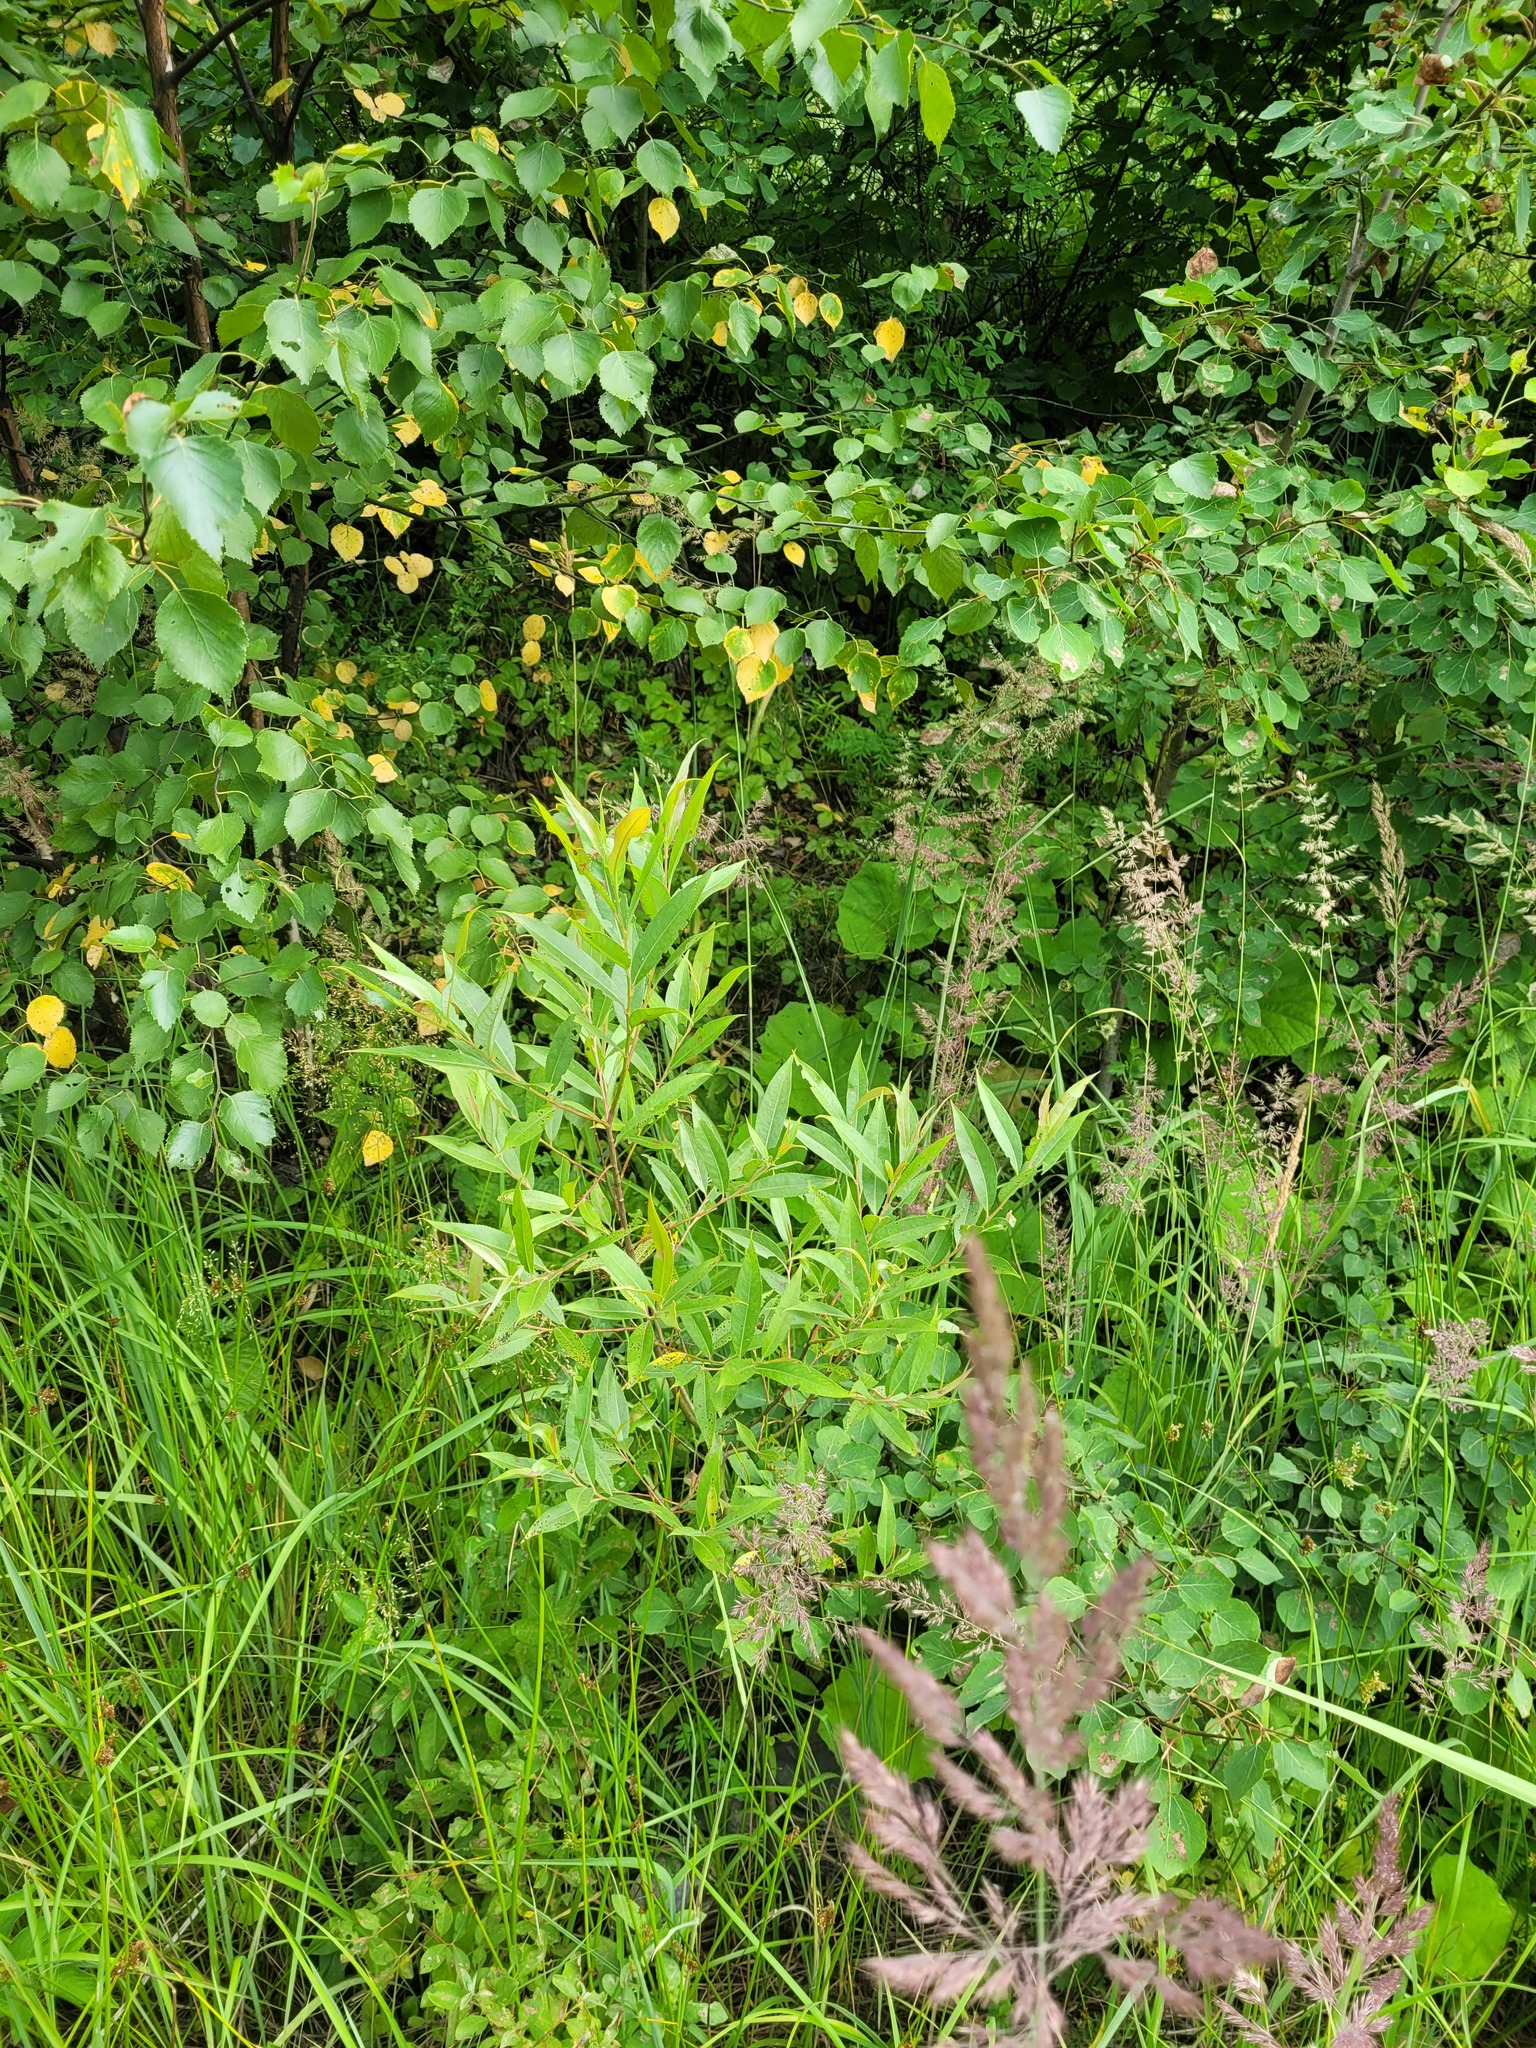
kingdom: Plantae
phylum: Tracheophyta
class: Magnoliopsida
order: Malpighiales
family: Salicaceae
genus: Salix
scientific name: Salix fragilis
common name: Crack willow
